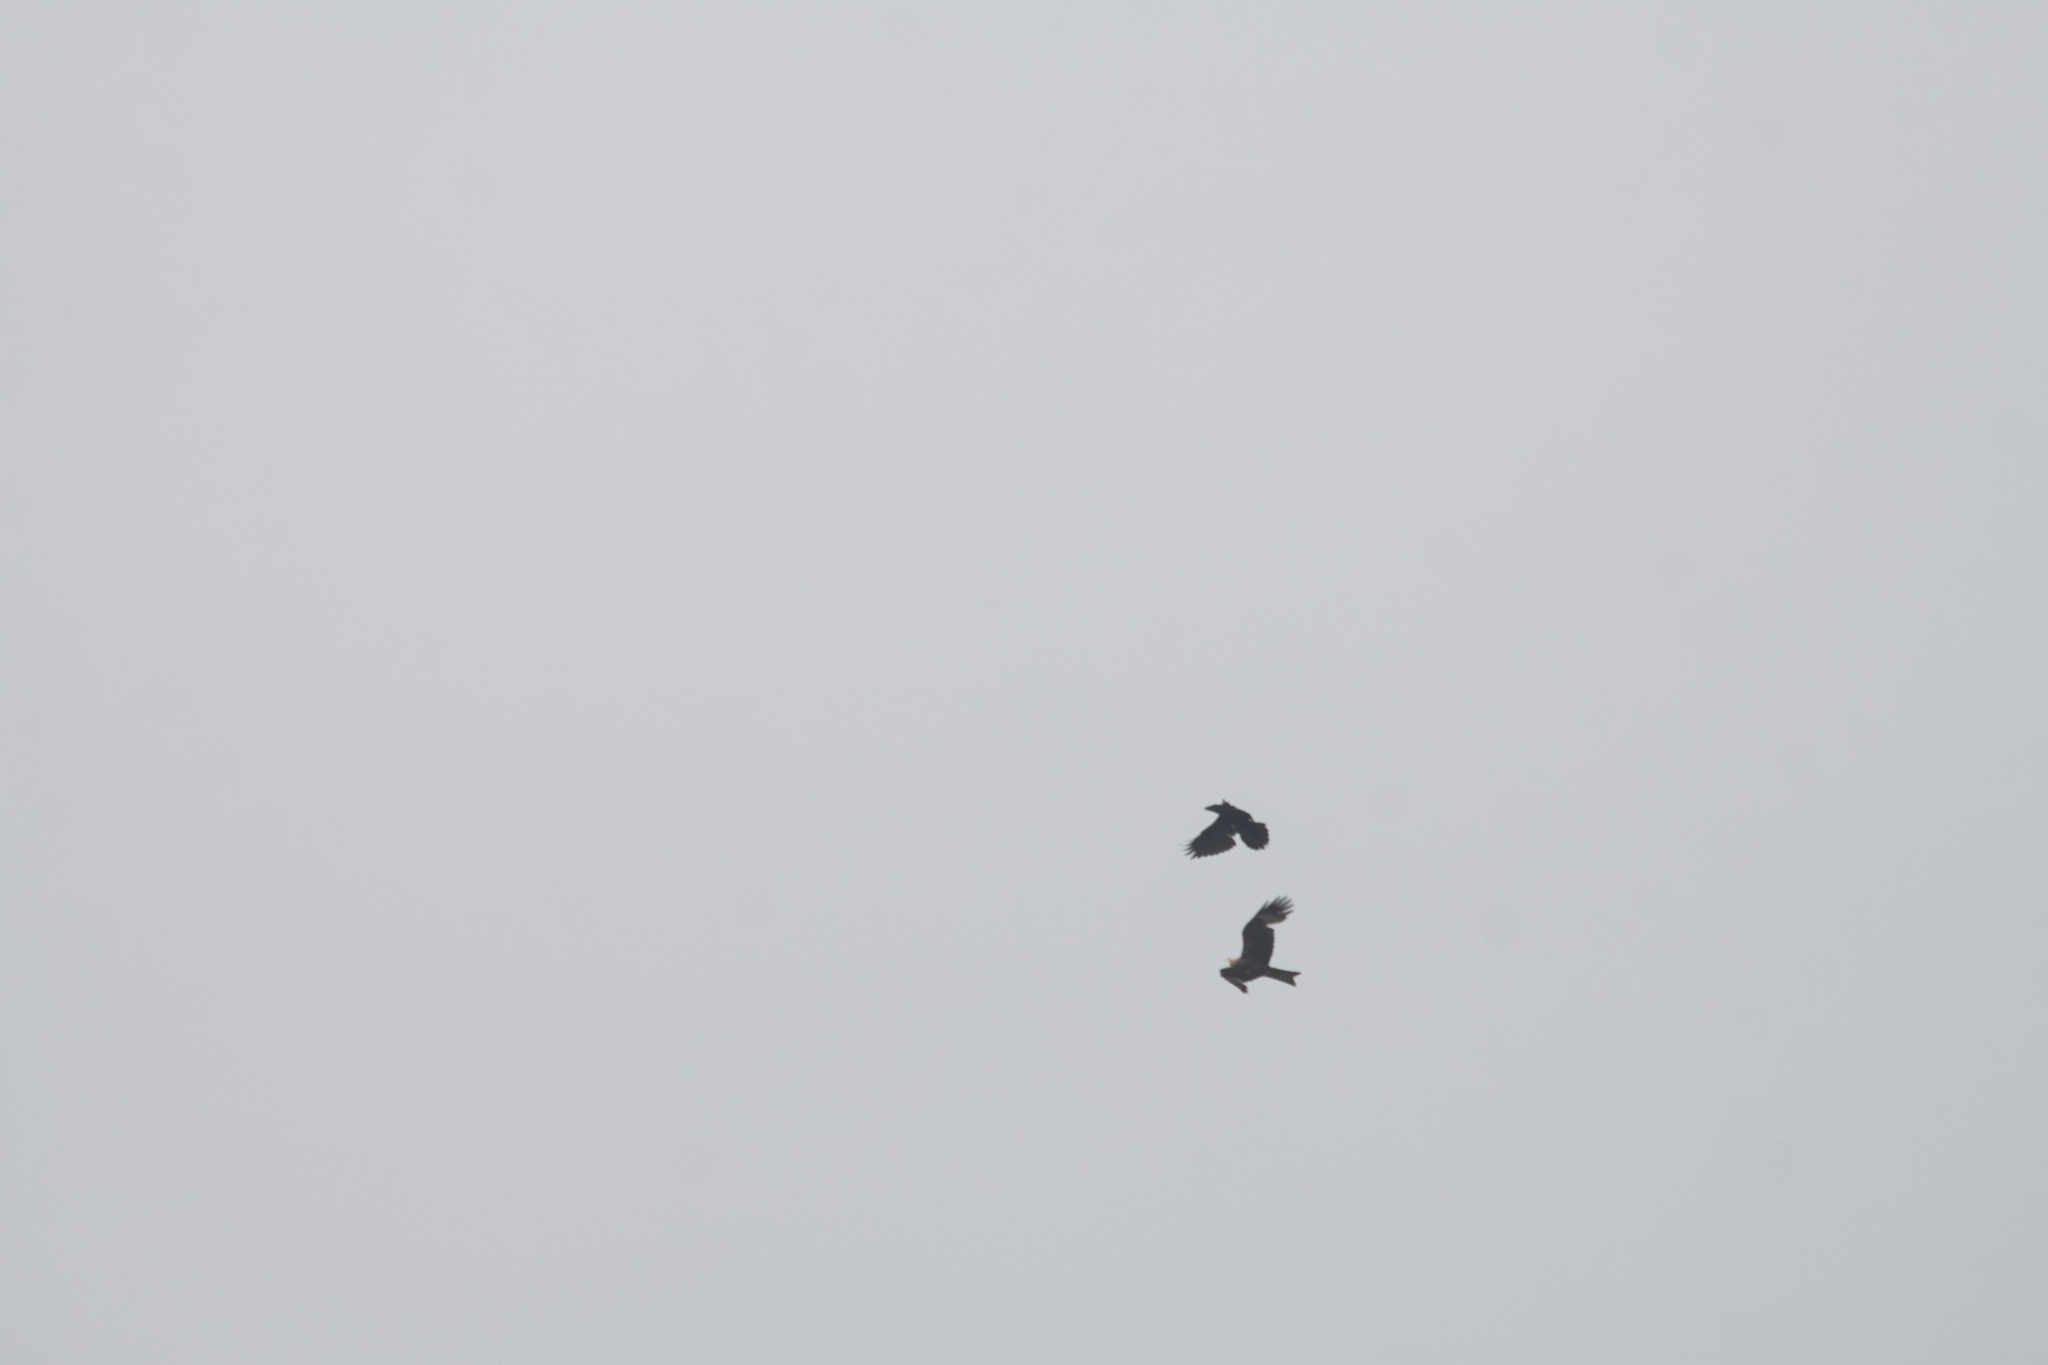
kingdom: Animalia
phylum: Chordata
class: Aves
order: Passeriformes
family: Corvidae
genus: Corvus
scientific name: Corvus corax
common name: Common raven
